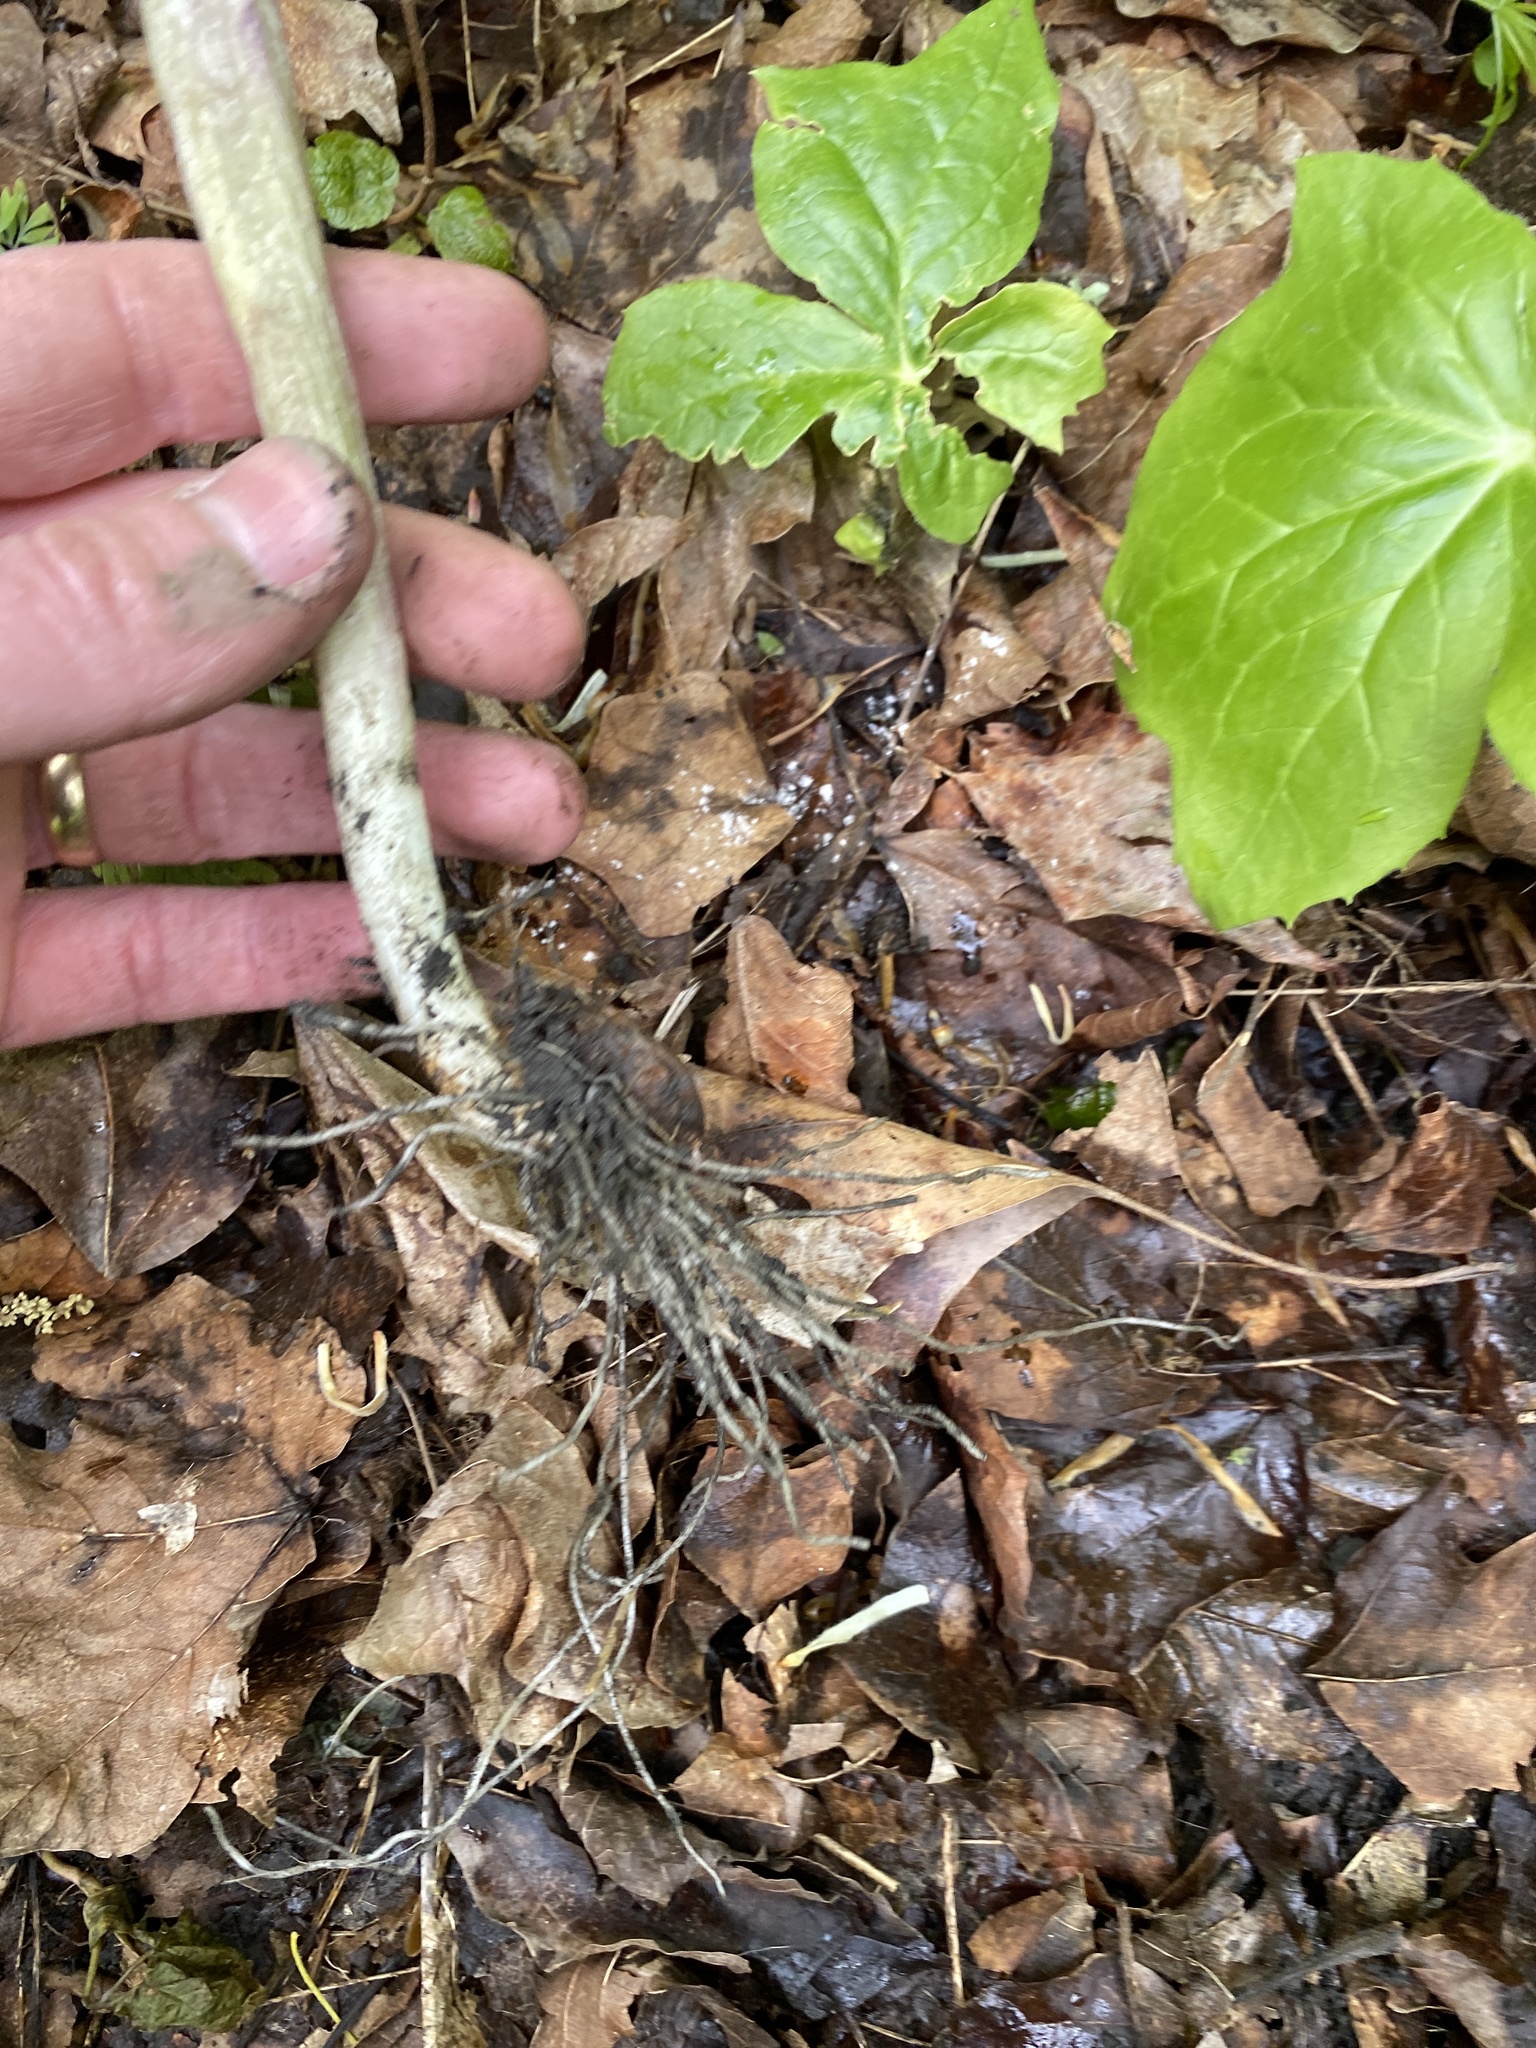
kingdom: Plantae
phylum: Tracheophyta
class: Liliopsida
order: Alismatales
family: Araceae
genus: Arisaema
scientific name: Arisaema triphyllum
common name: Jack-in-the-pulpit
